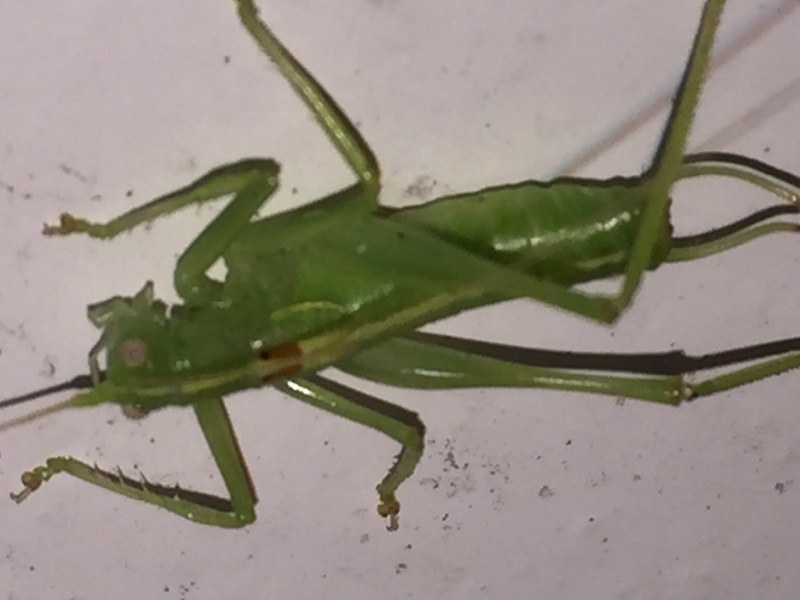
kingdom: Animalia
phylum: Arthropoda
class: Insecta
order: Orthoptera
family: Tettigoniidae
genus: Meconema
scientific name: Meconema meridionale
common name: Southern oak bush-cricket
